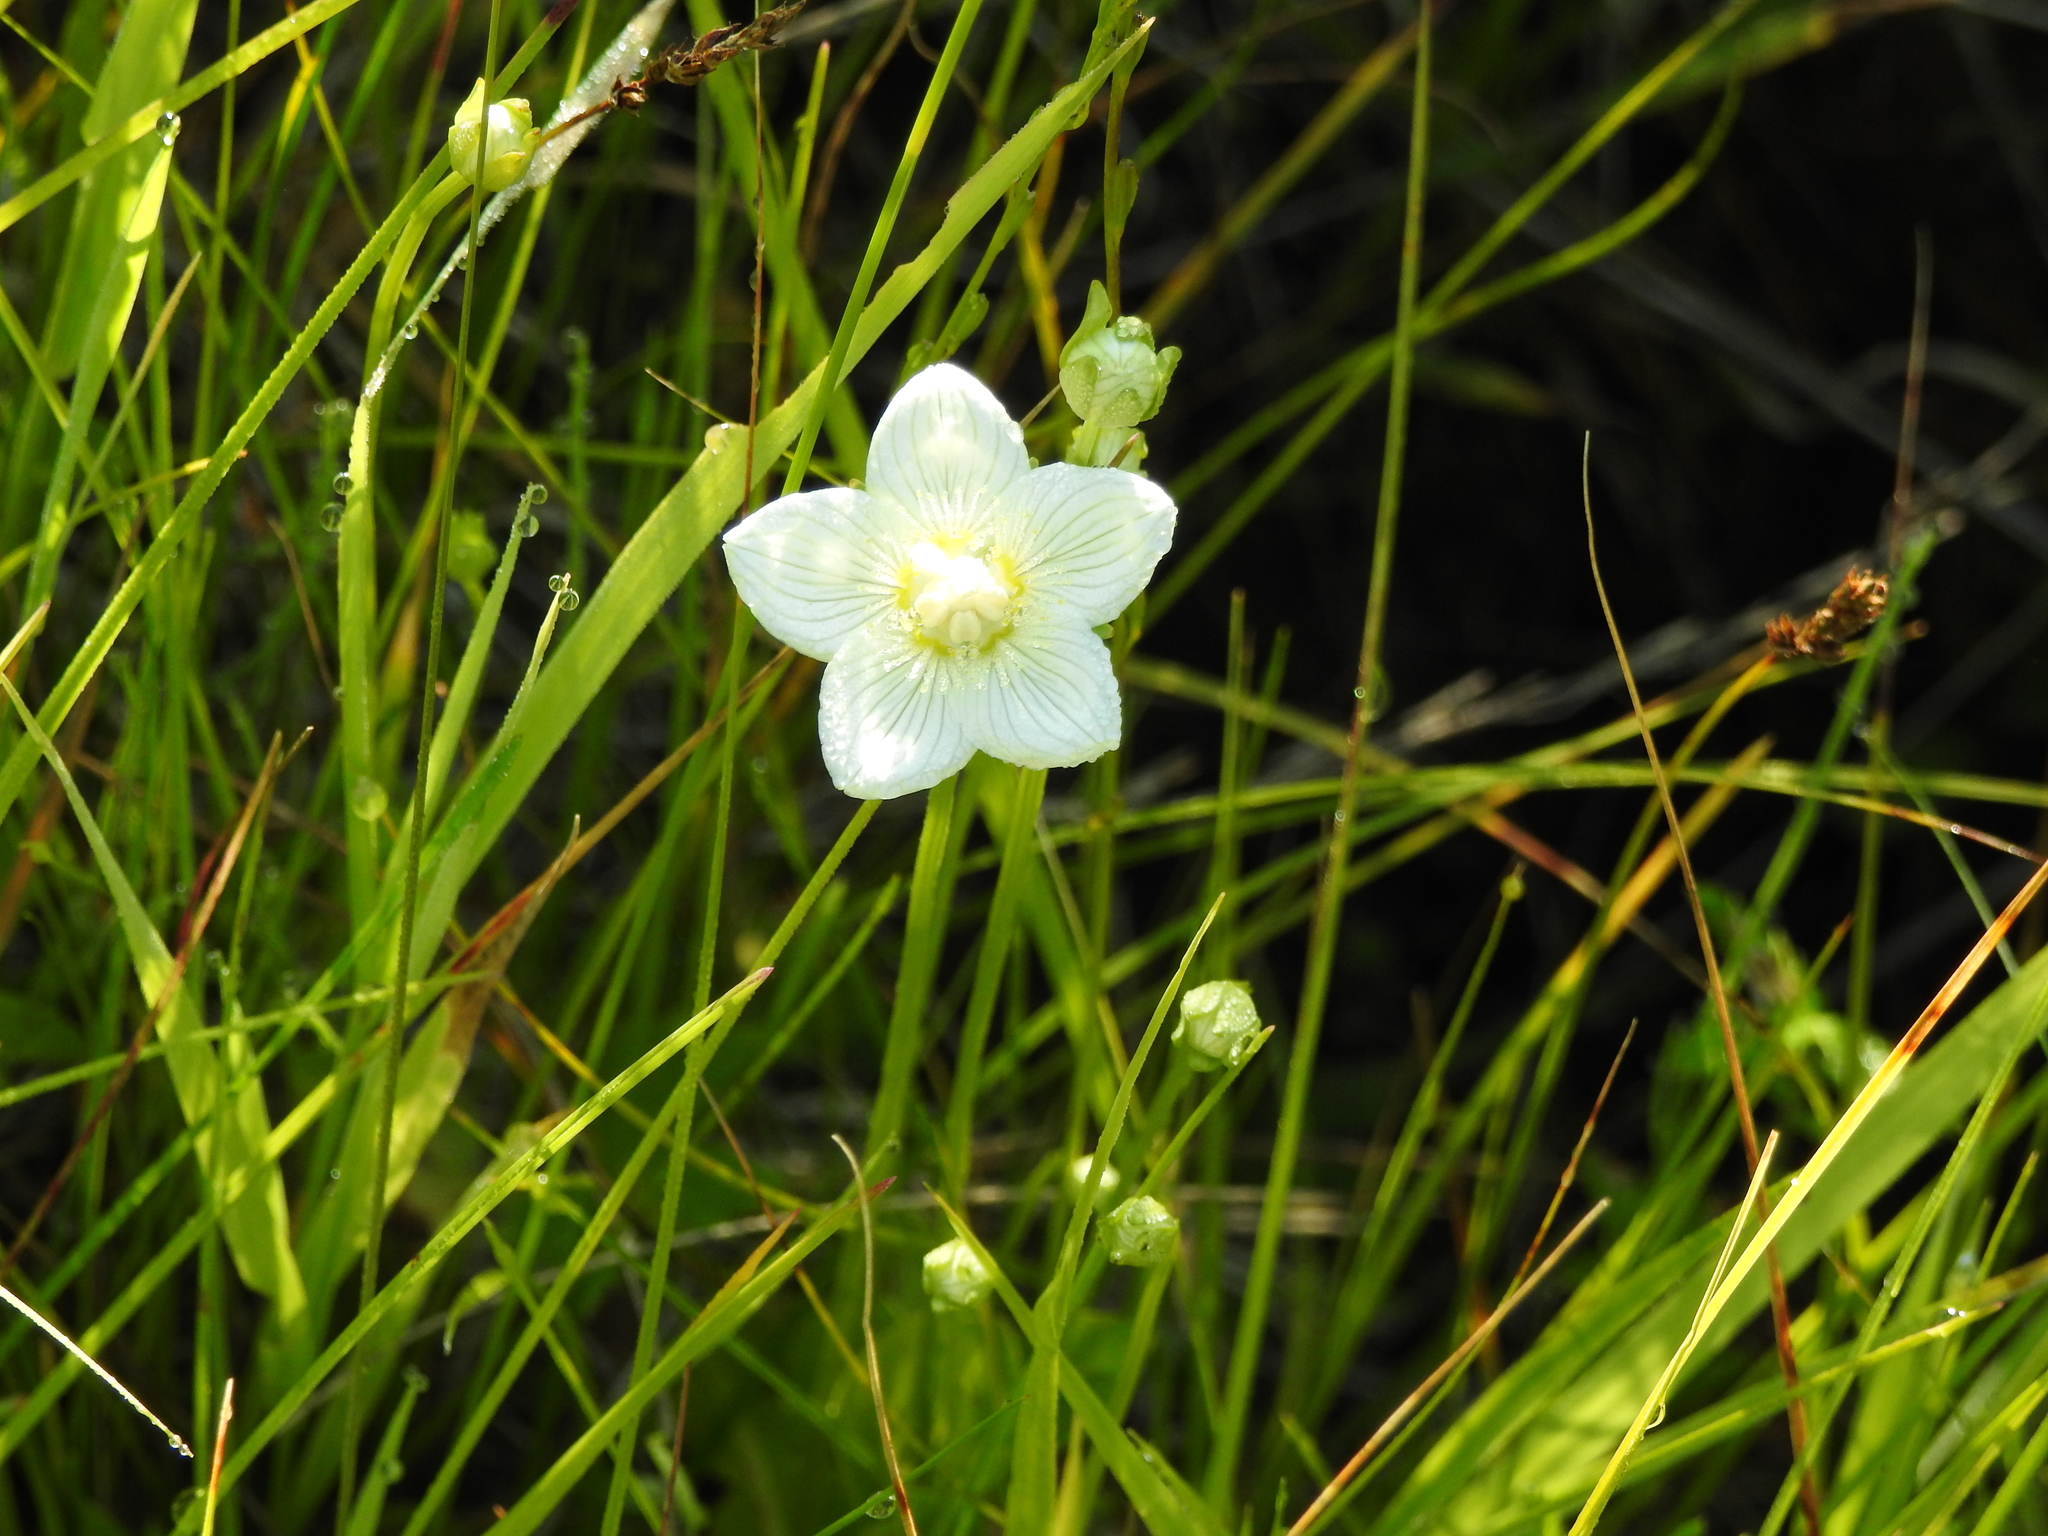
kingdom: Plantae
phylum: Tracheophyta
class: Magnoliopsida
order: Celastrales
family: Parnassiaceae
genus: Parnassia
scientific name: Parnassia palustris
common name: Grass-of-parnassus
